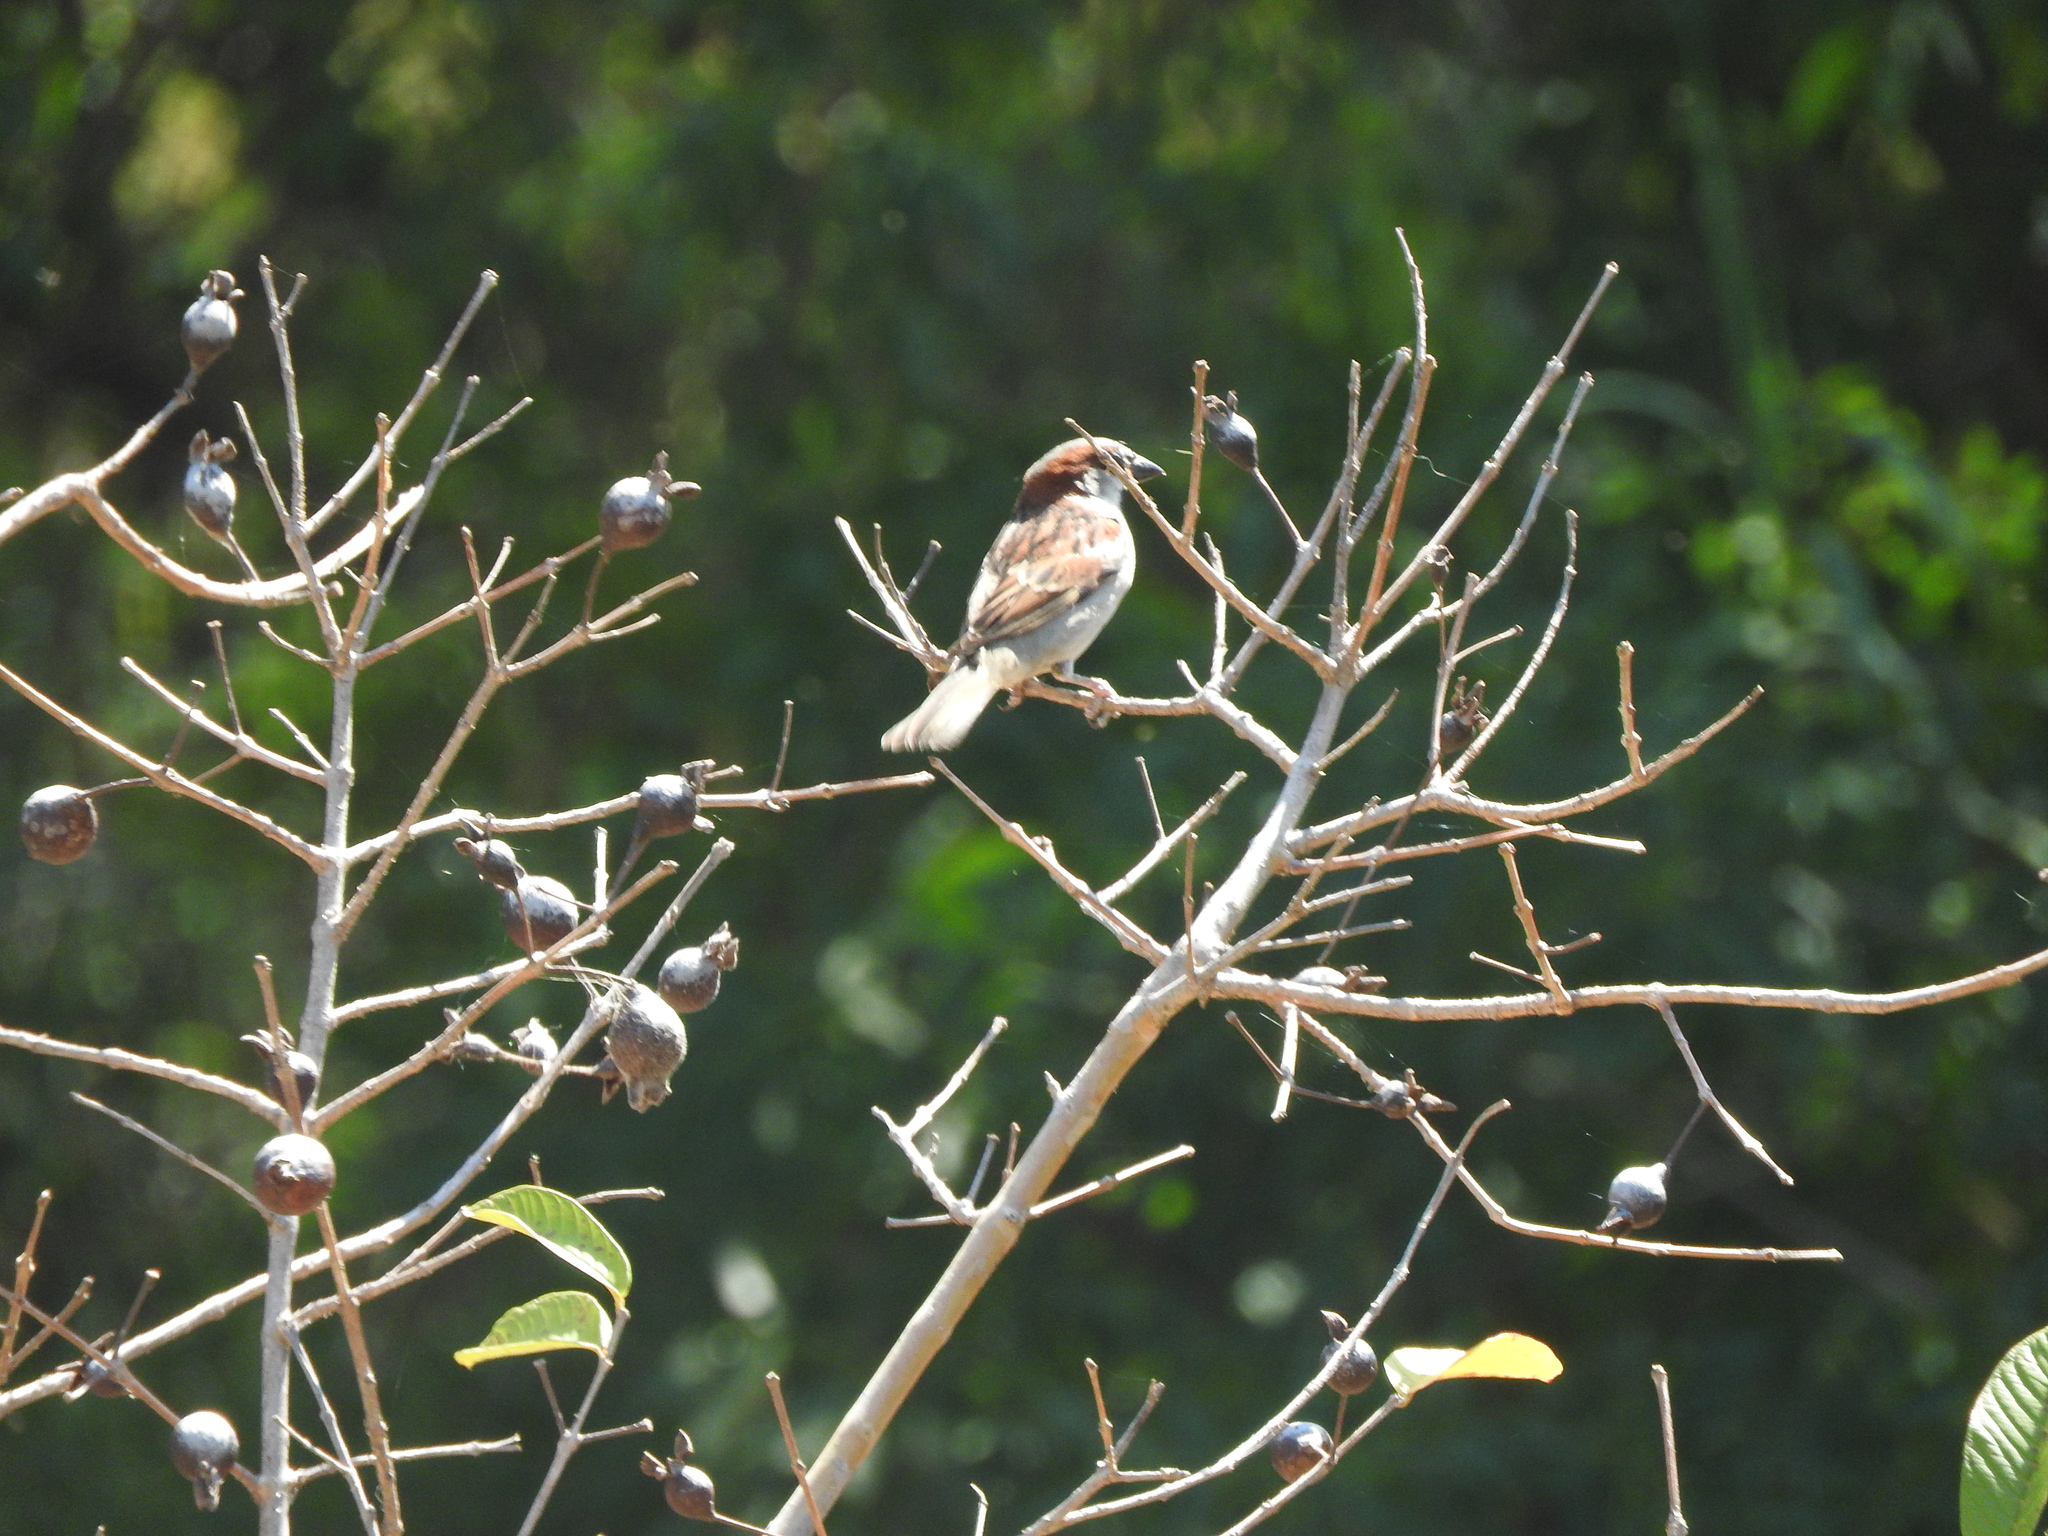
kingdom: Animalia
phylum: Chordata
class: Aves
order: Passeriformes
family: Passeridae
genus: Passer
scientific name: Passer domesticus
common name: House sparrow
